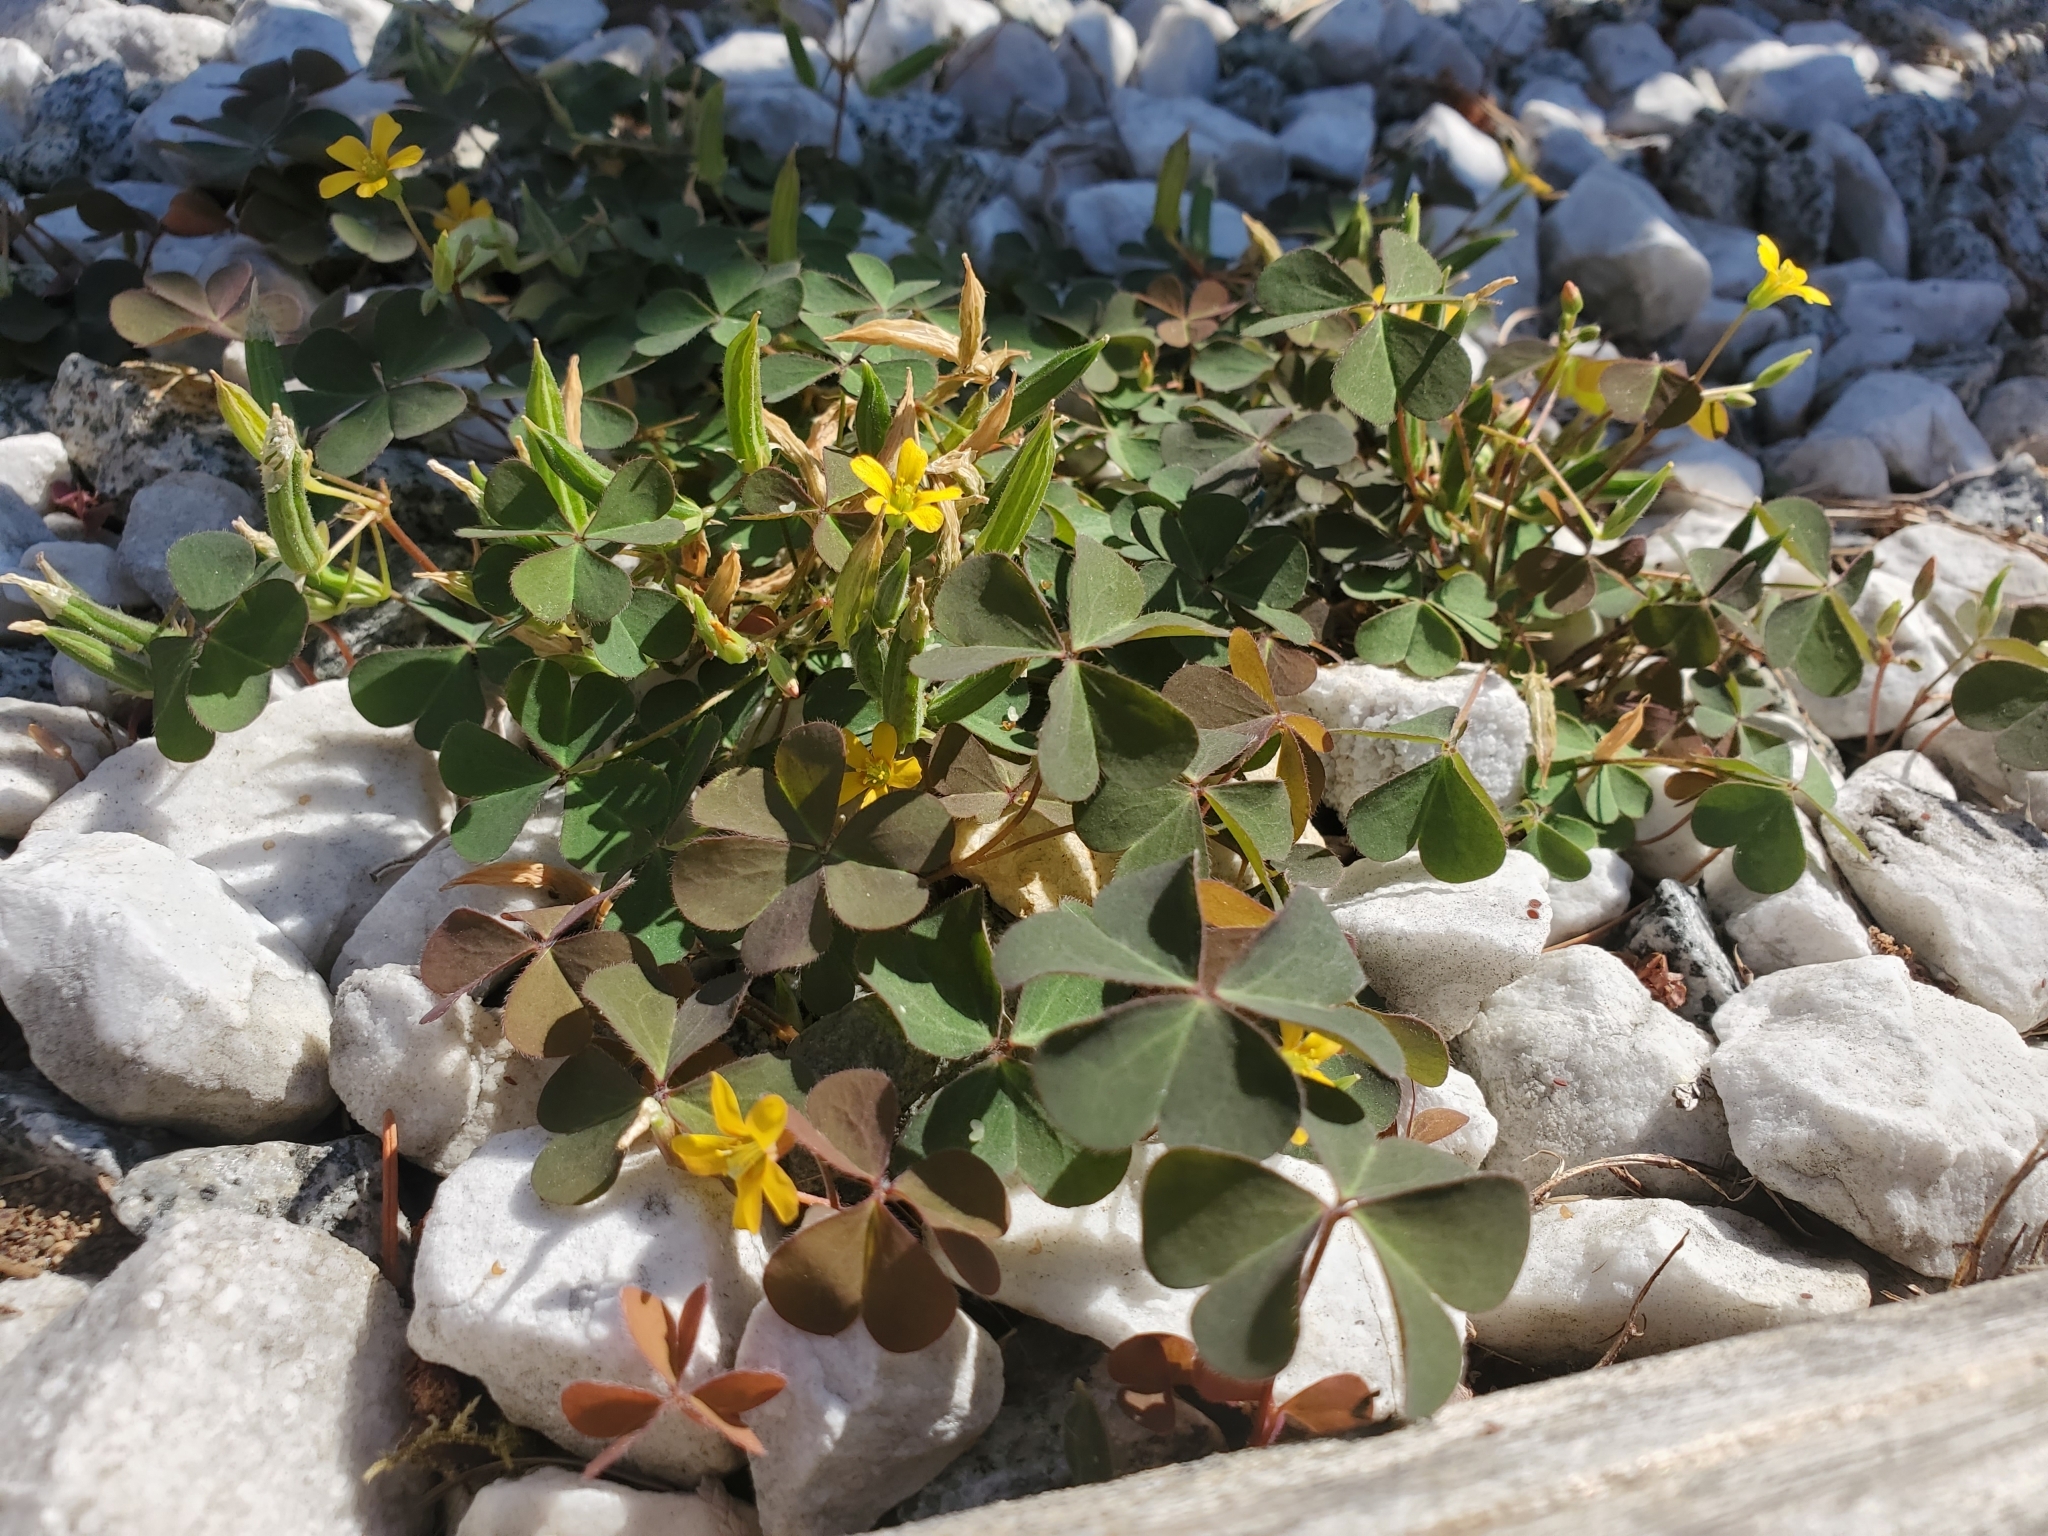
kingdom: Plantae
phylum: Tracheophyta
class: Magnoliopsida
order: Oxalidales
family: Oxalidaceae
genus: Oxalis
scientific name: Oxalis corniculata
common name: Procumbent yellow-sorrel
